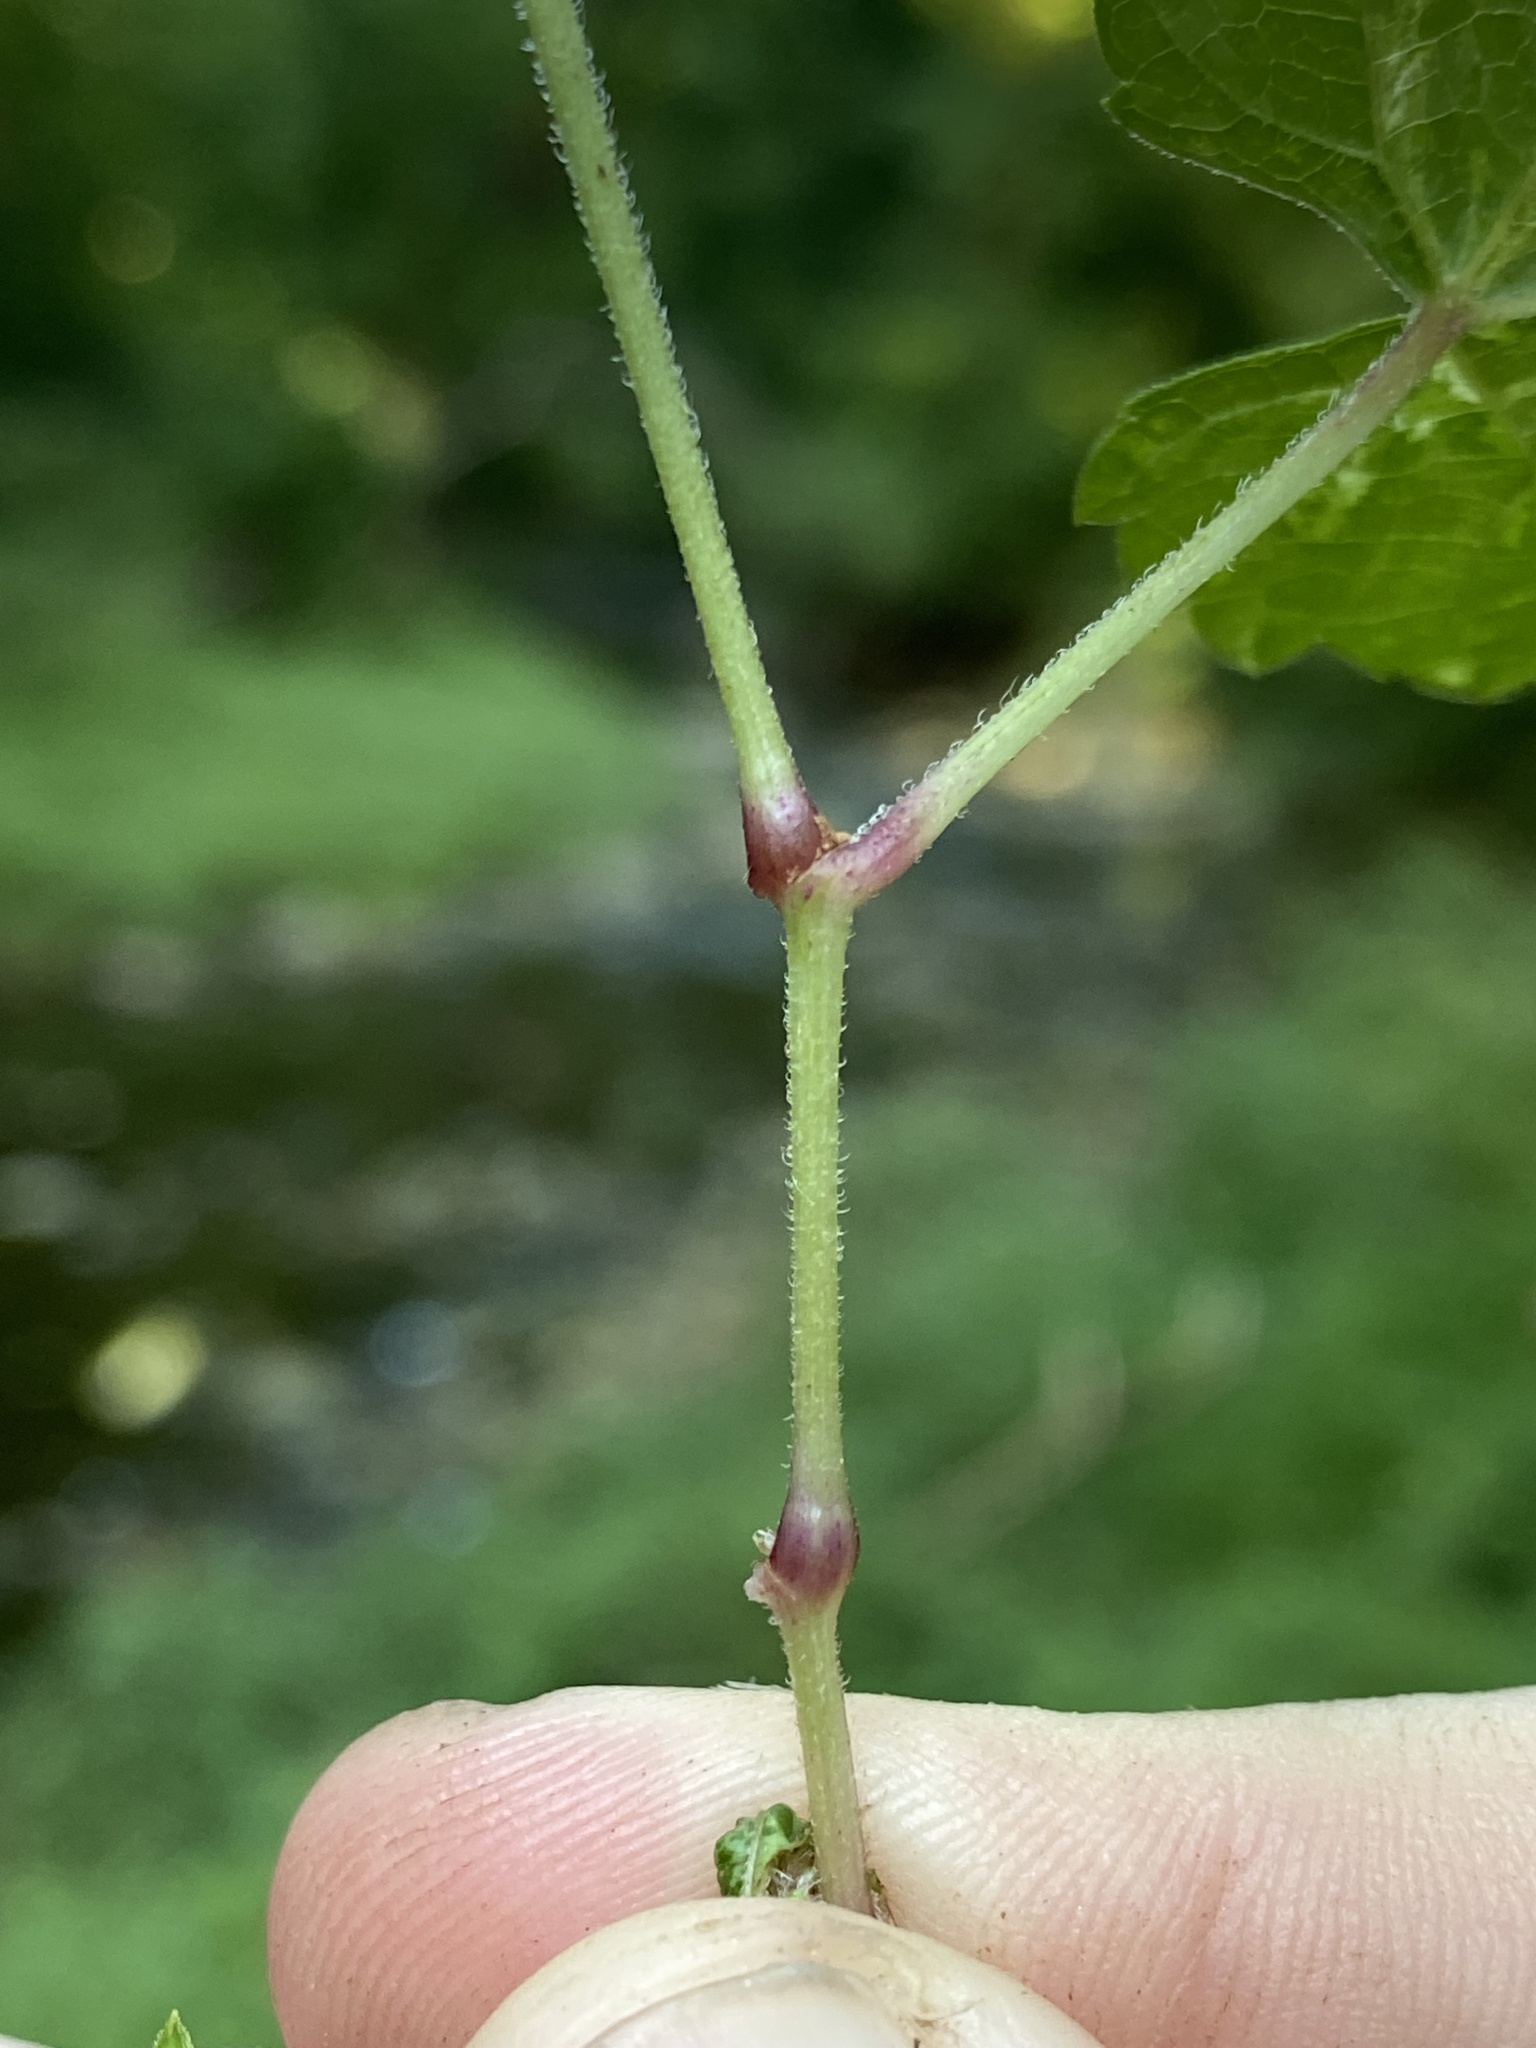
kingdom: Plantae
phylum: Tracheophyta
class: Magnoliopsida
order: Vitales
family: Vitaceae
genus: Ampelopsis
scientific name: Ampelopsis glandulosa
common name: Amur peppervine
